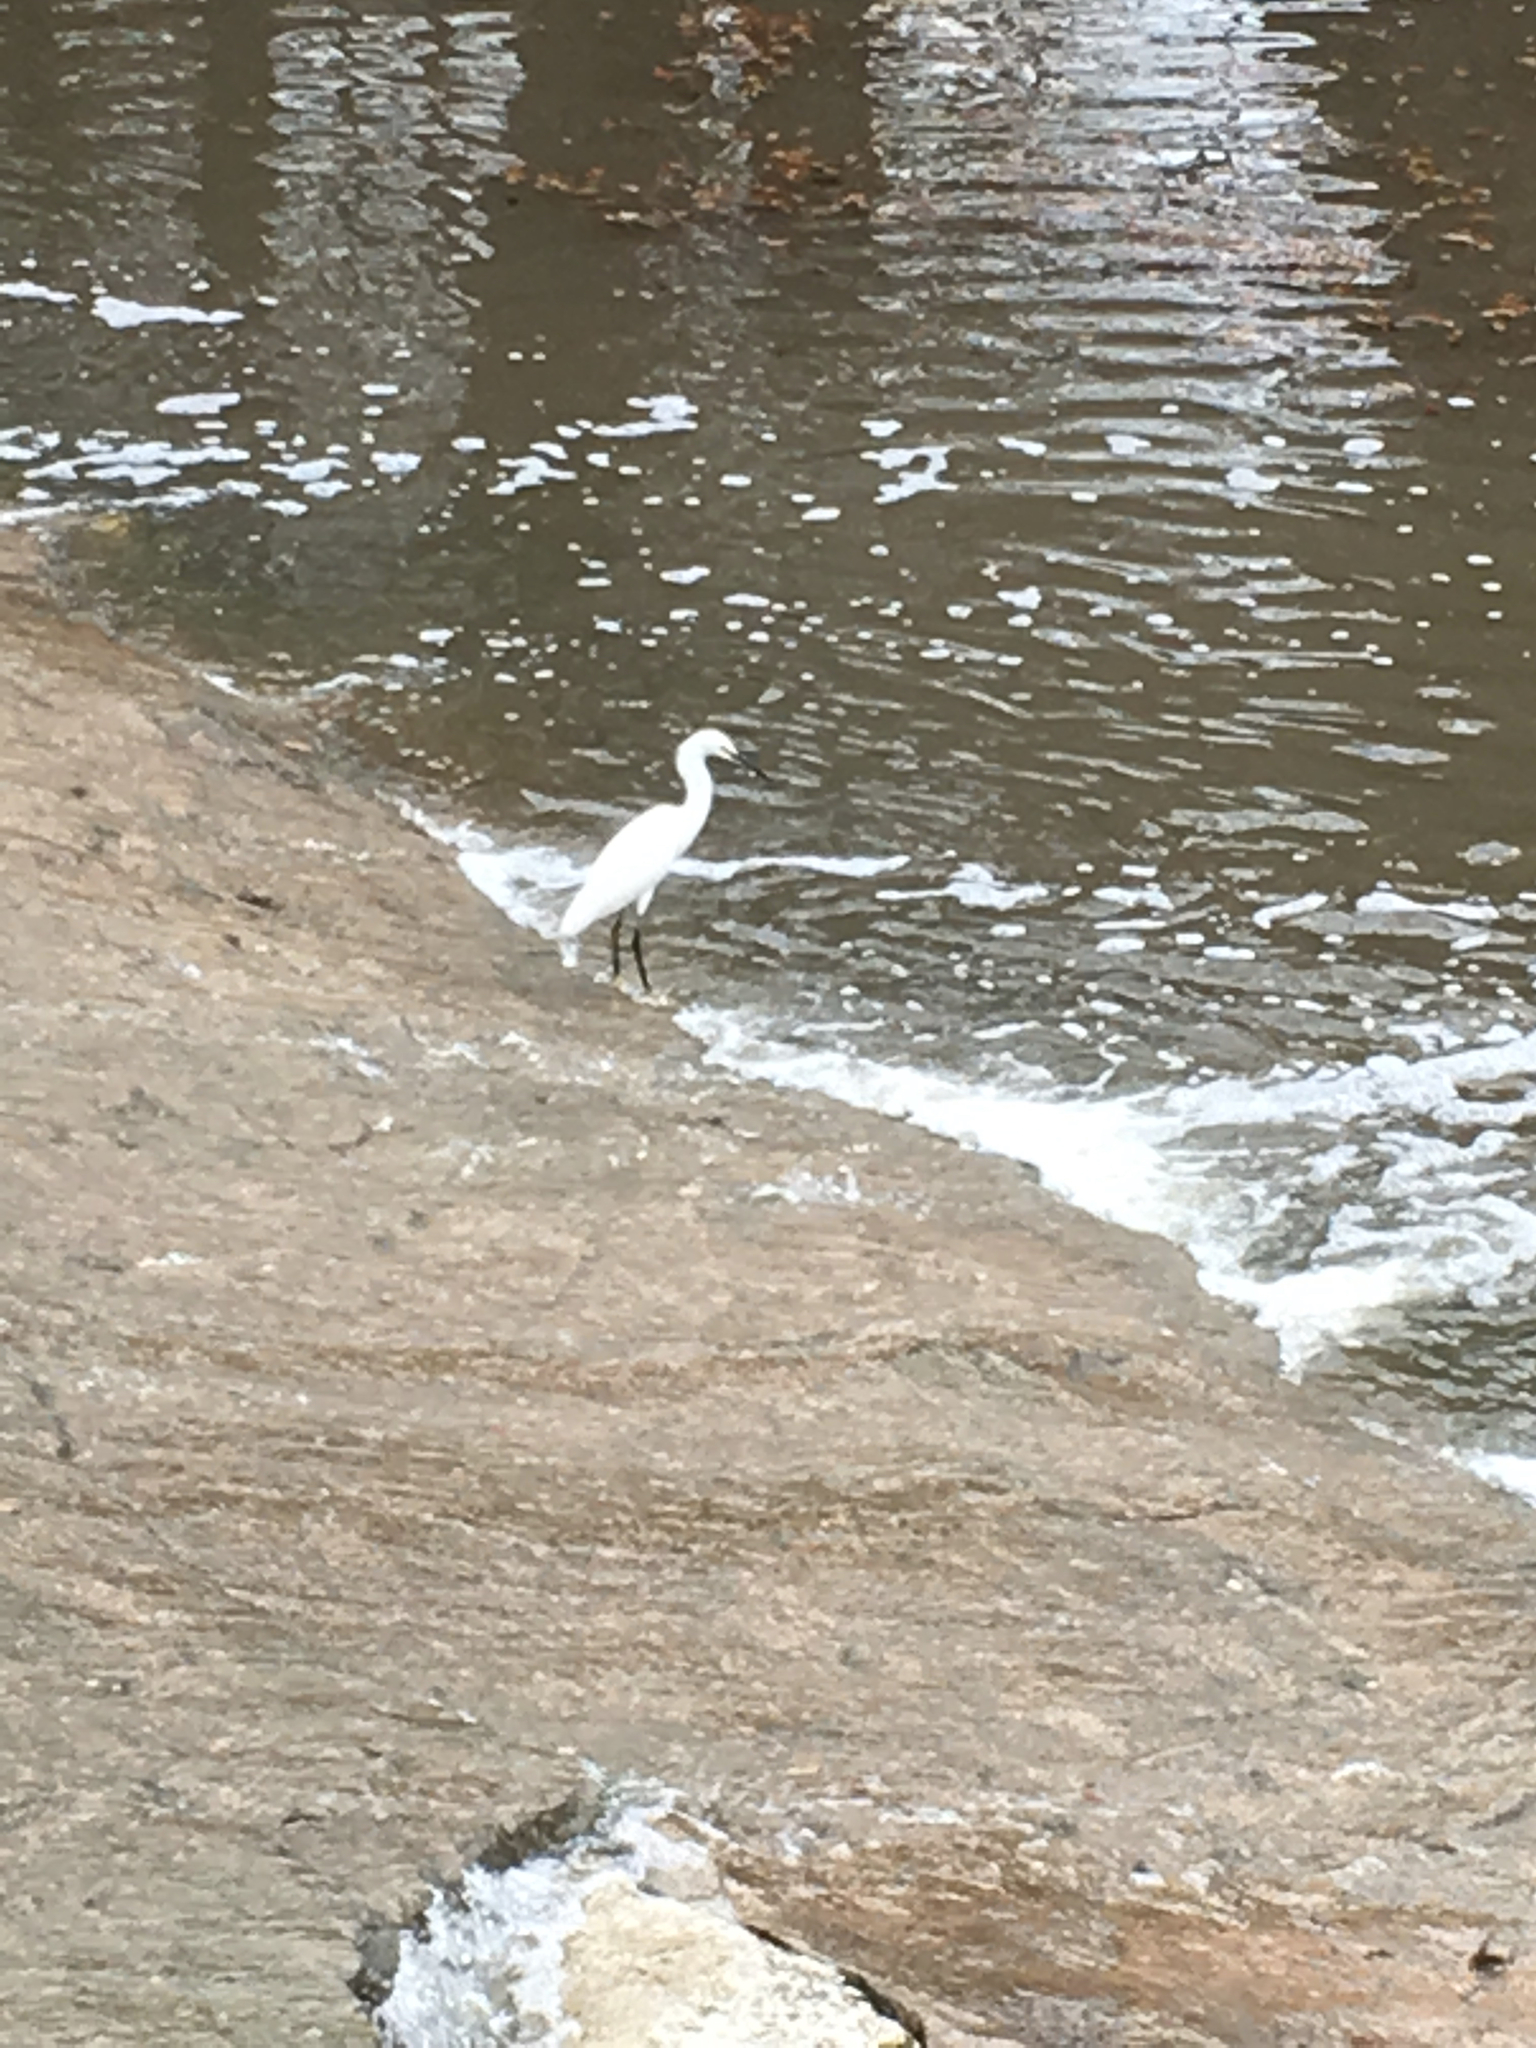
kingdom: Animalia
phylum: Chordata
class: Aves
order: Pelecaniformes
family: Ardeidae
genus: Egretta
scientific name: Egretta thula
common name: Snowy egret
